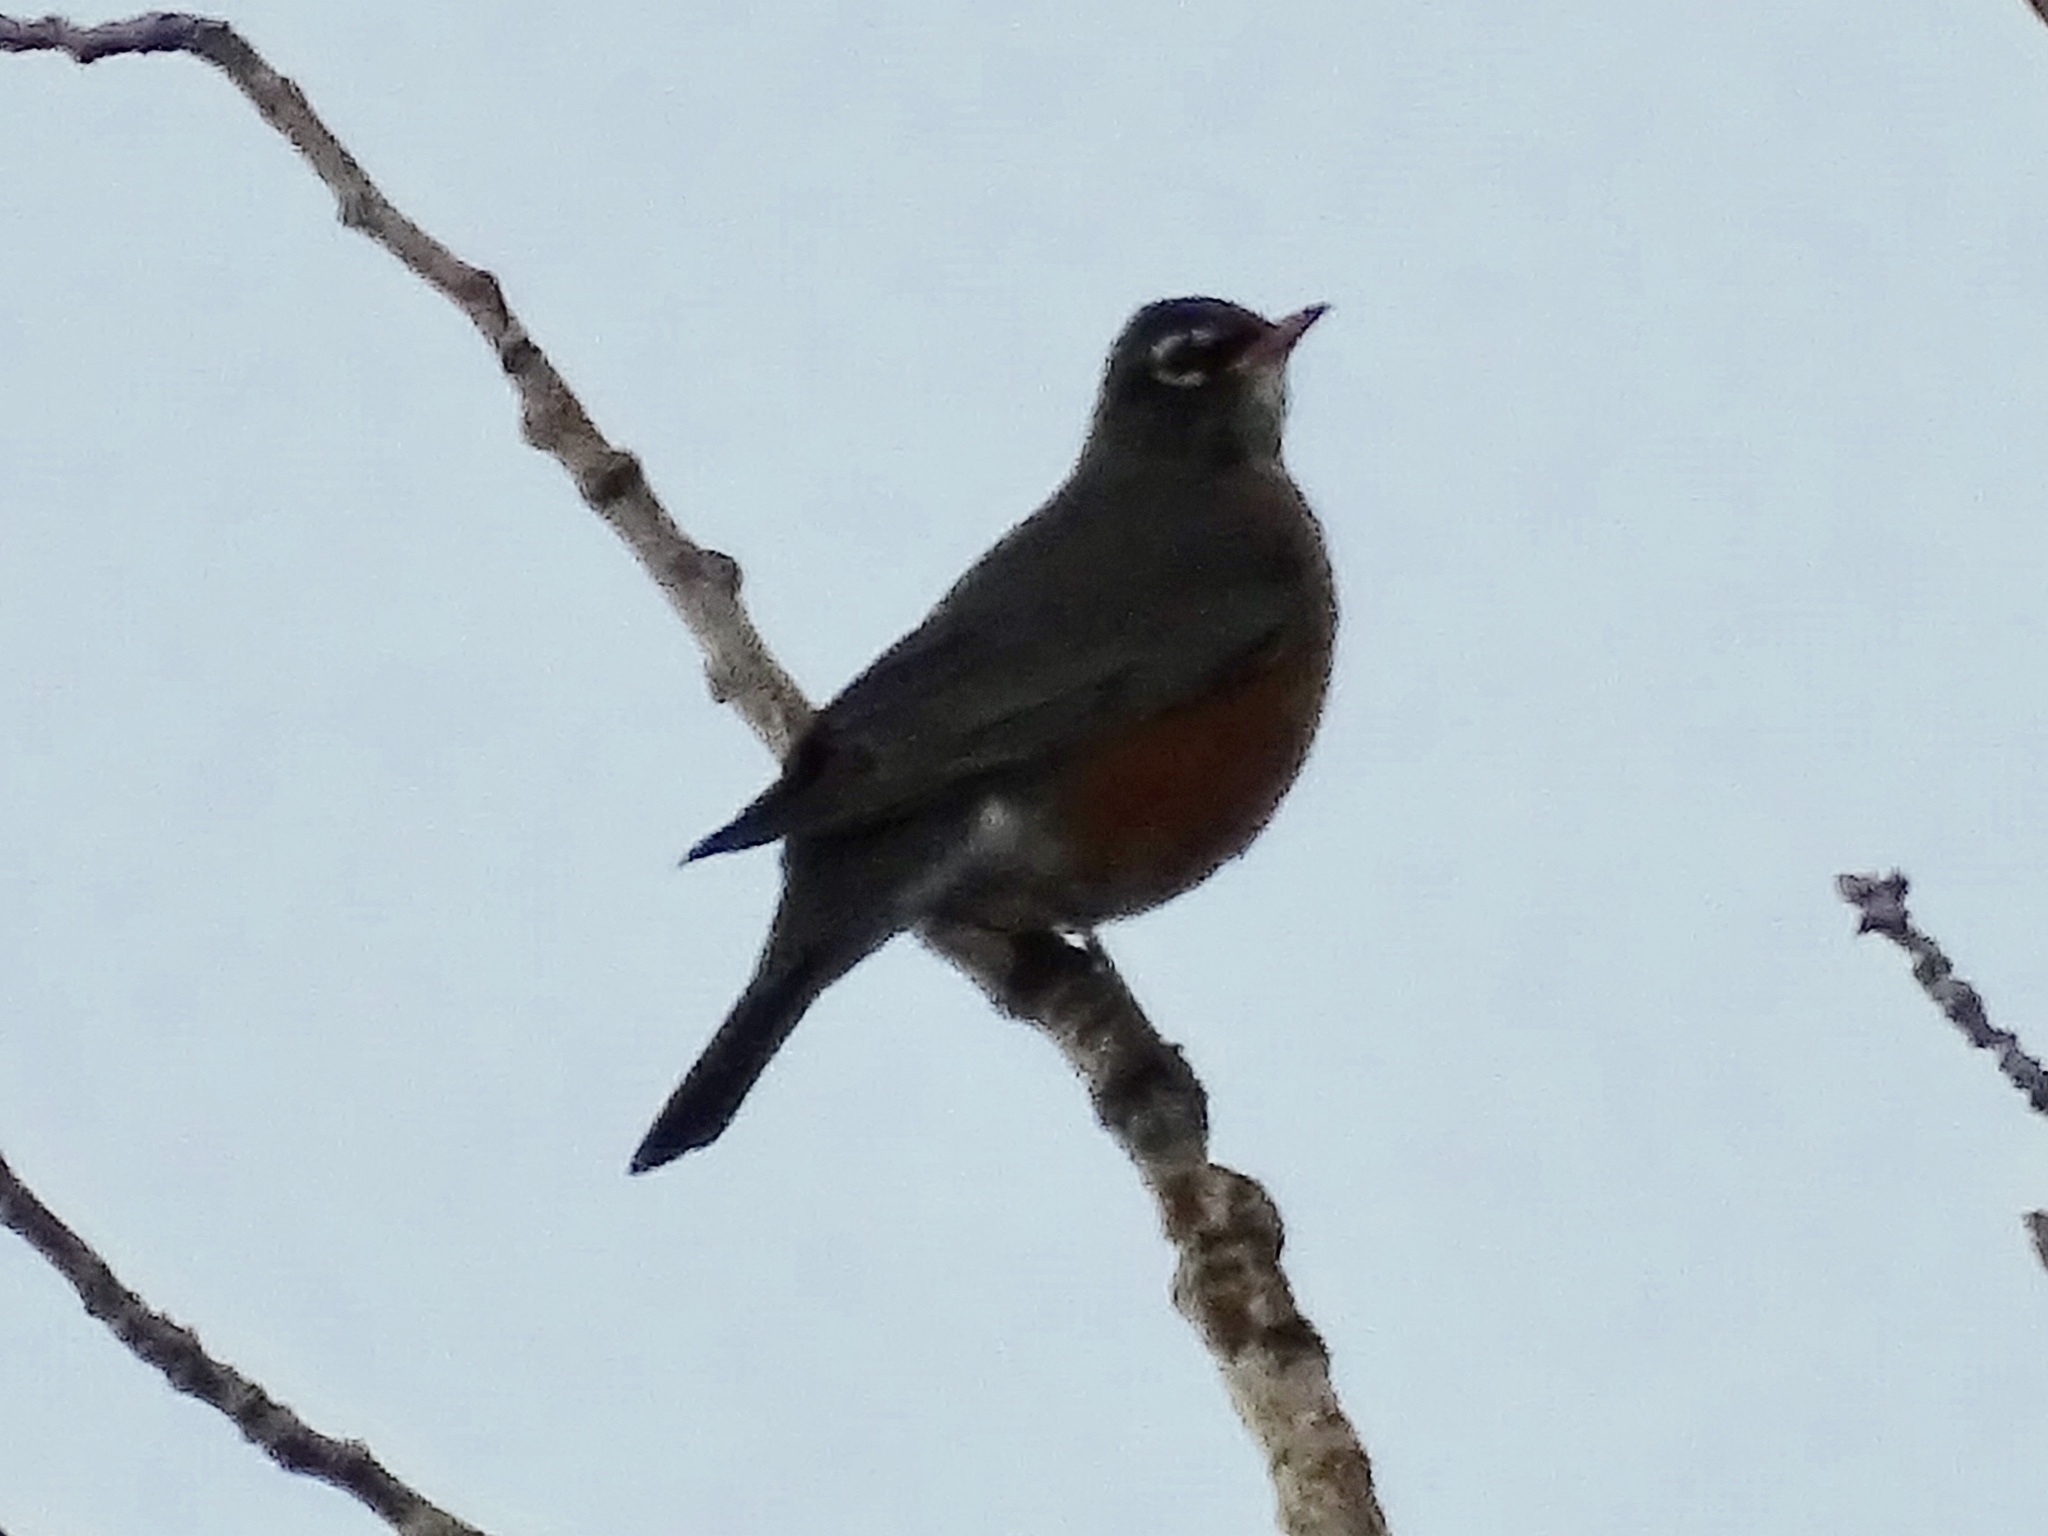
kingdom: Animalia
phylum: Chordata
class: Aves
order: Passeriformes
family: Turdidae
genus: Turdus
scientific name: Turdus migratorius
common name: American robin
